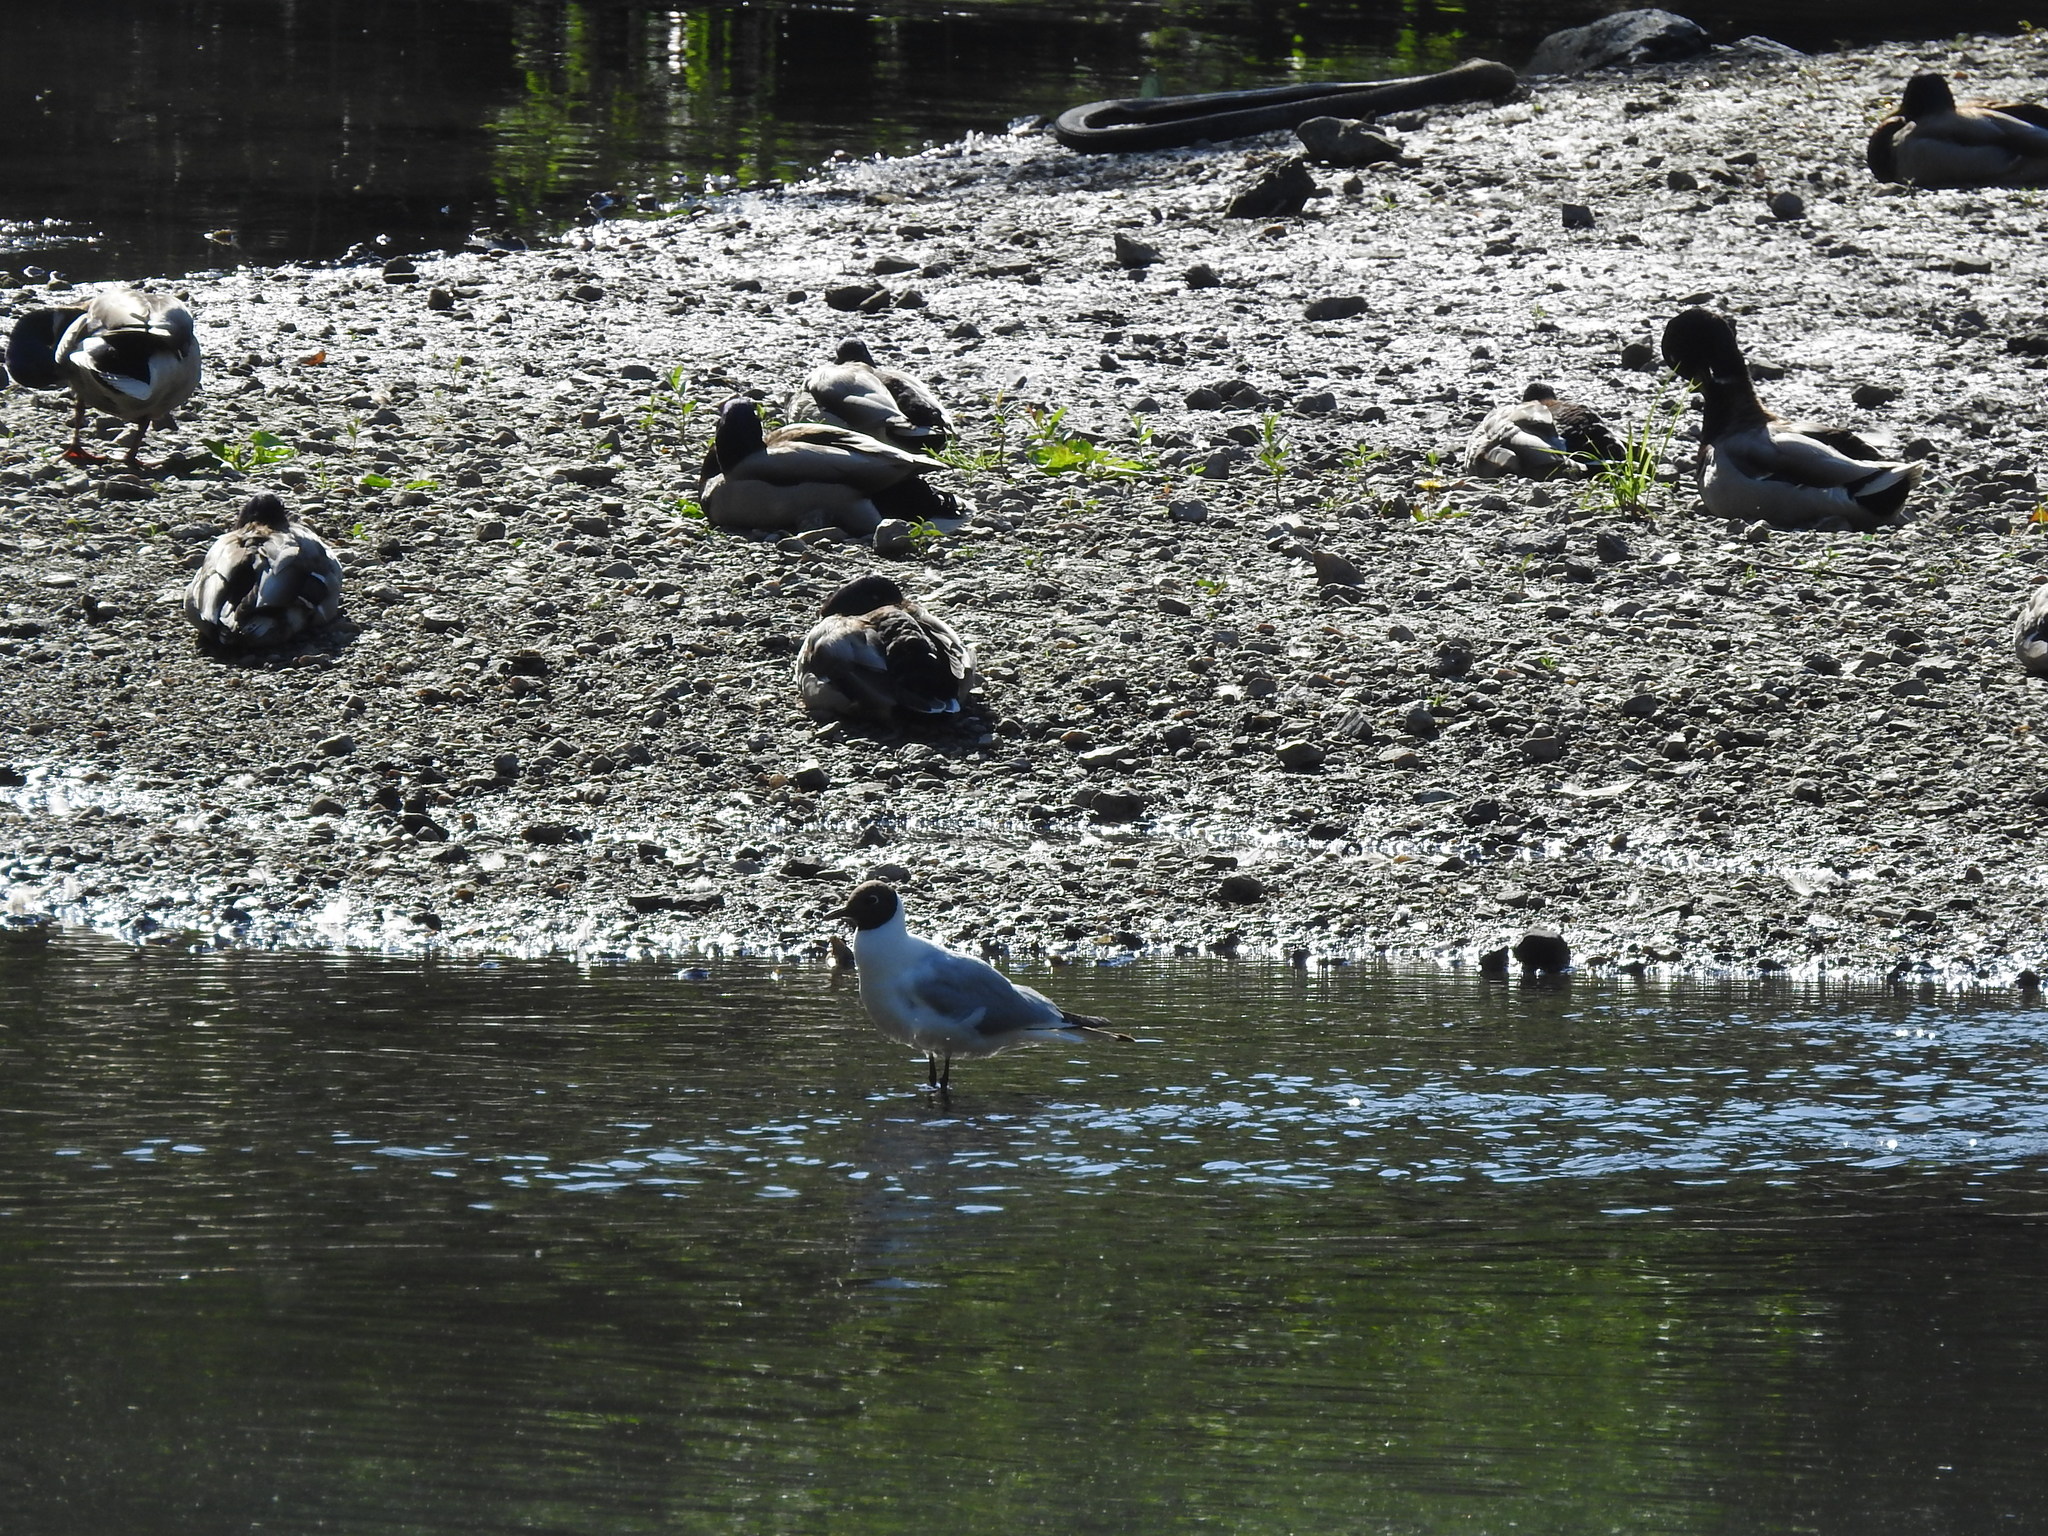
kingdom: Animalia
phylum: Chordata
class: Aves
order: Charadriiformes
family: Laridae
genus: Chroicocephalus
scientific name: Chroicocephalus ridibundus
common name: Black-headed gull
